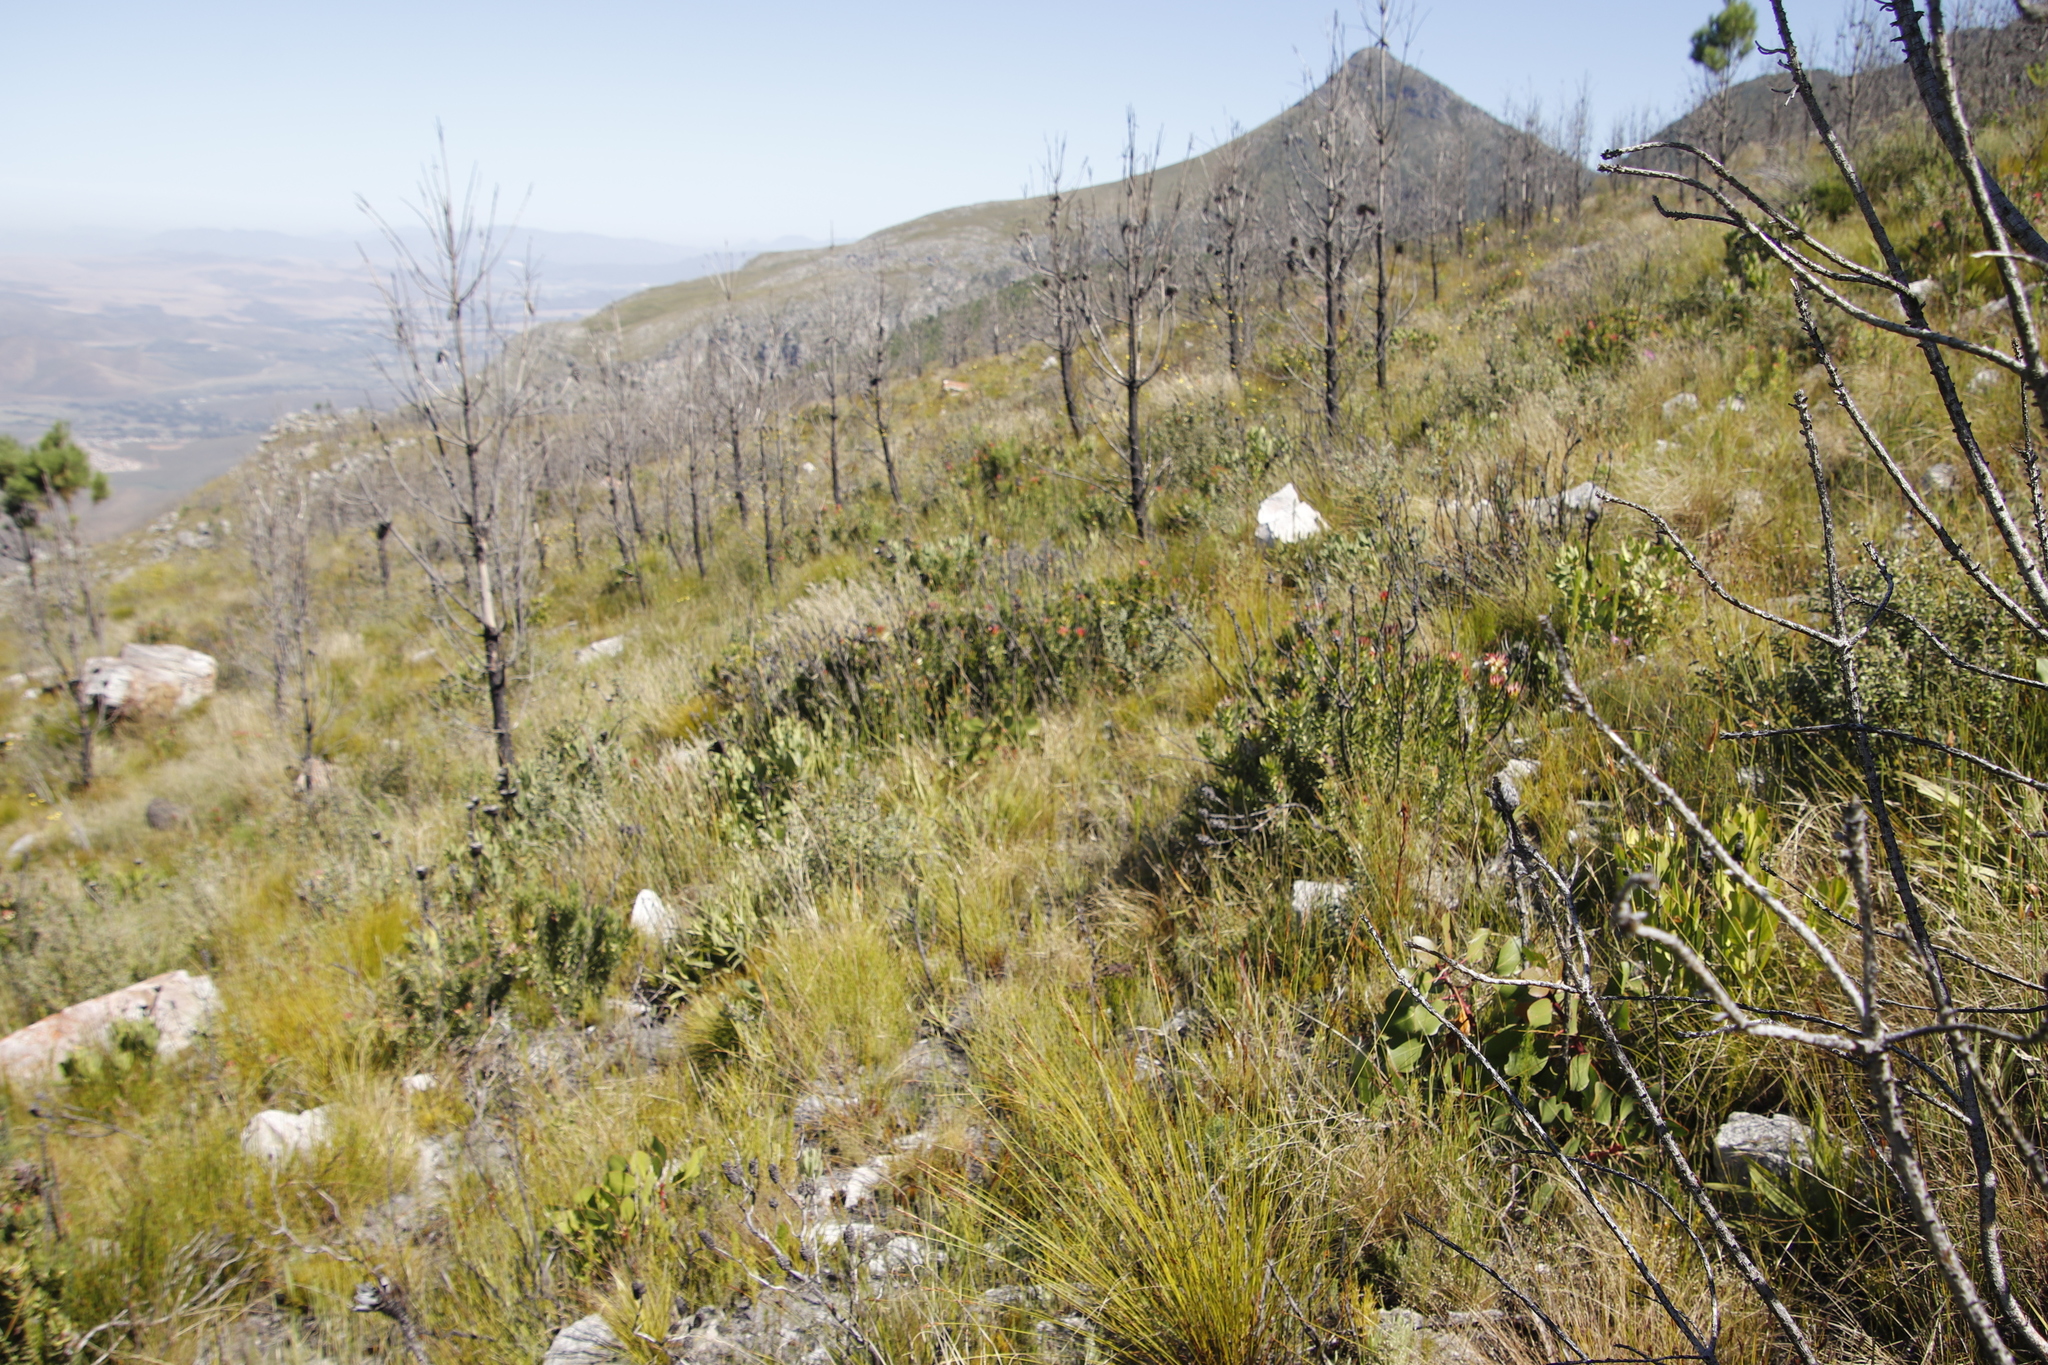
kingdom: Plantae
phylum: Tracheophyta
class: Magnoliopsida
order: Proteales
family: Proteaceae
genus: Mimetes
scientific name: Mimetes cucullatus
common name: Common pagoda
